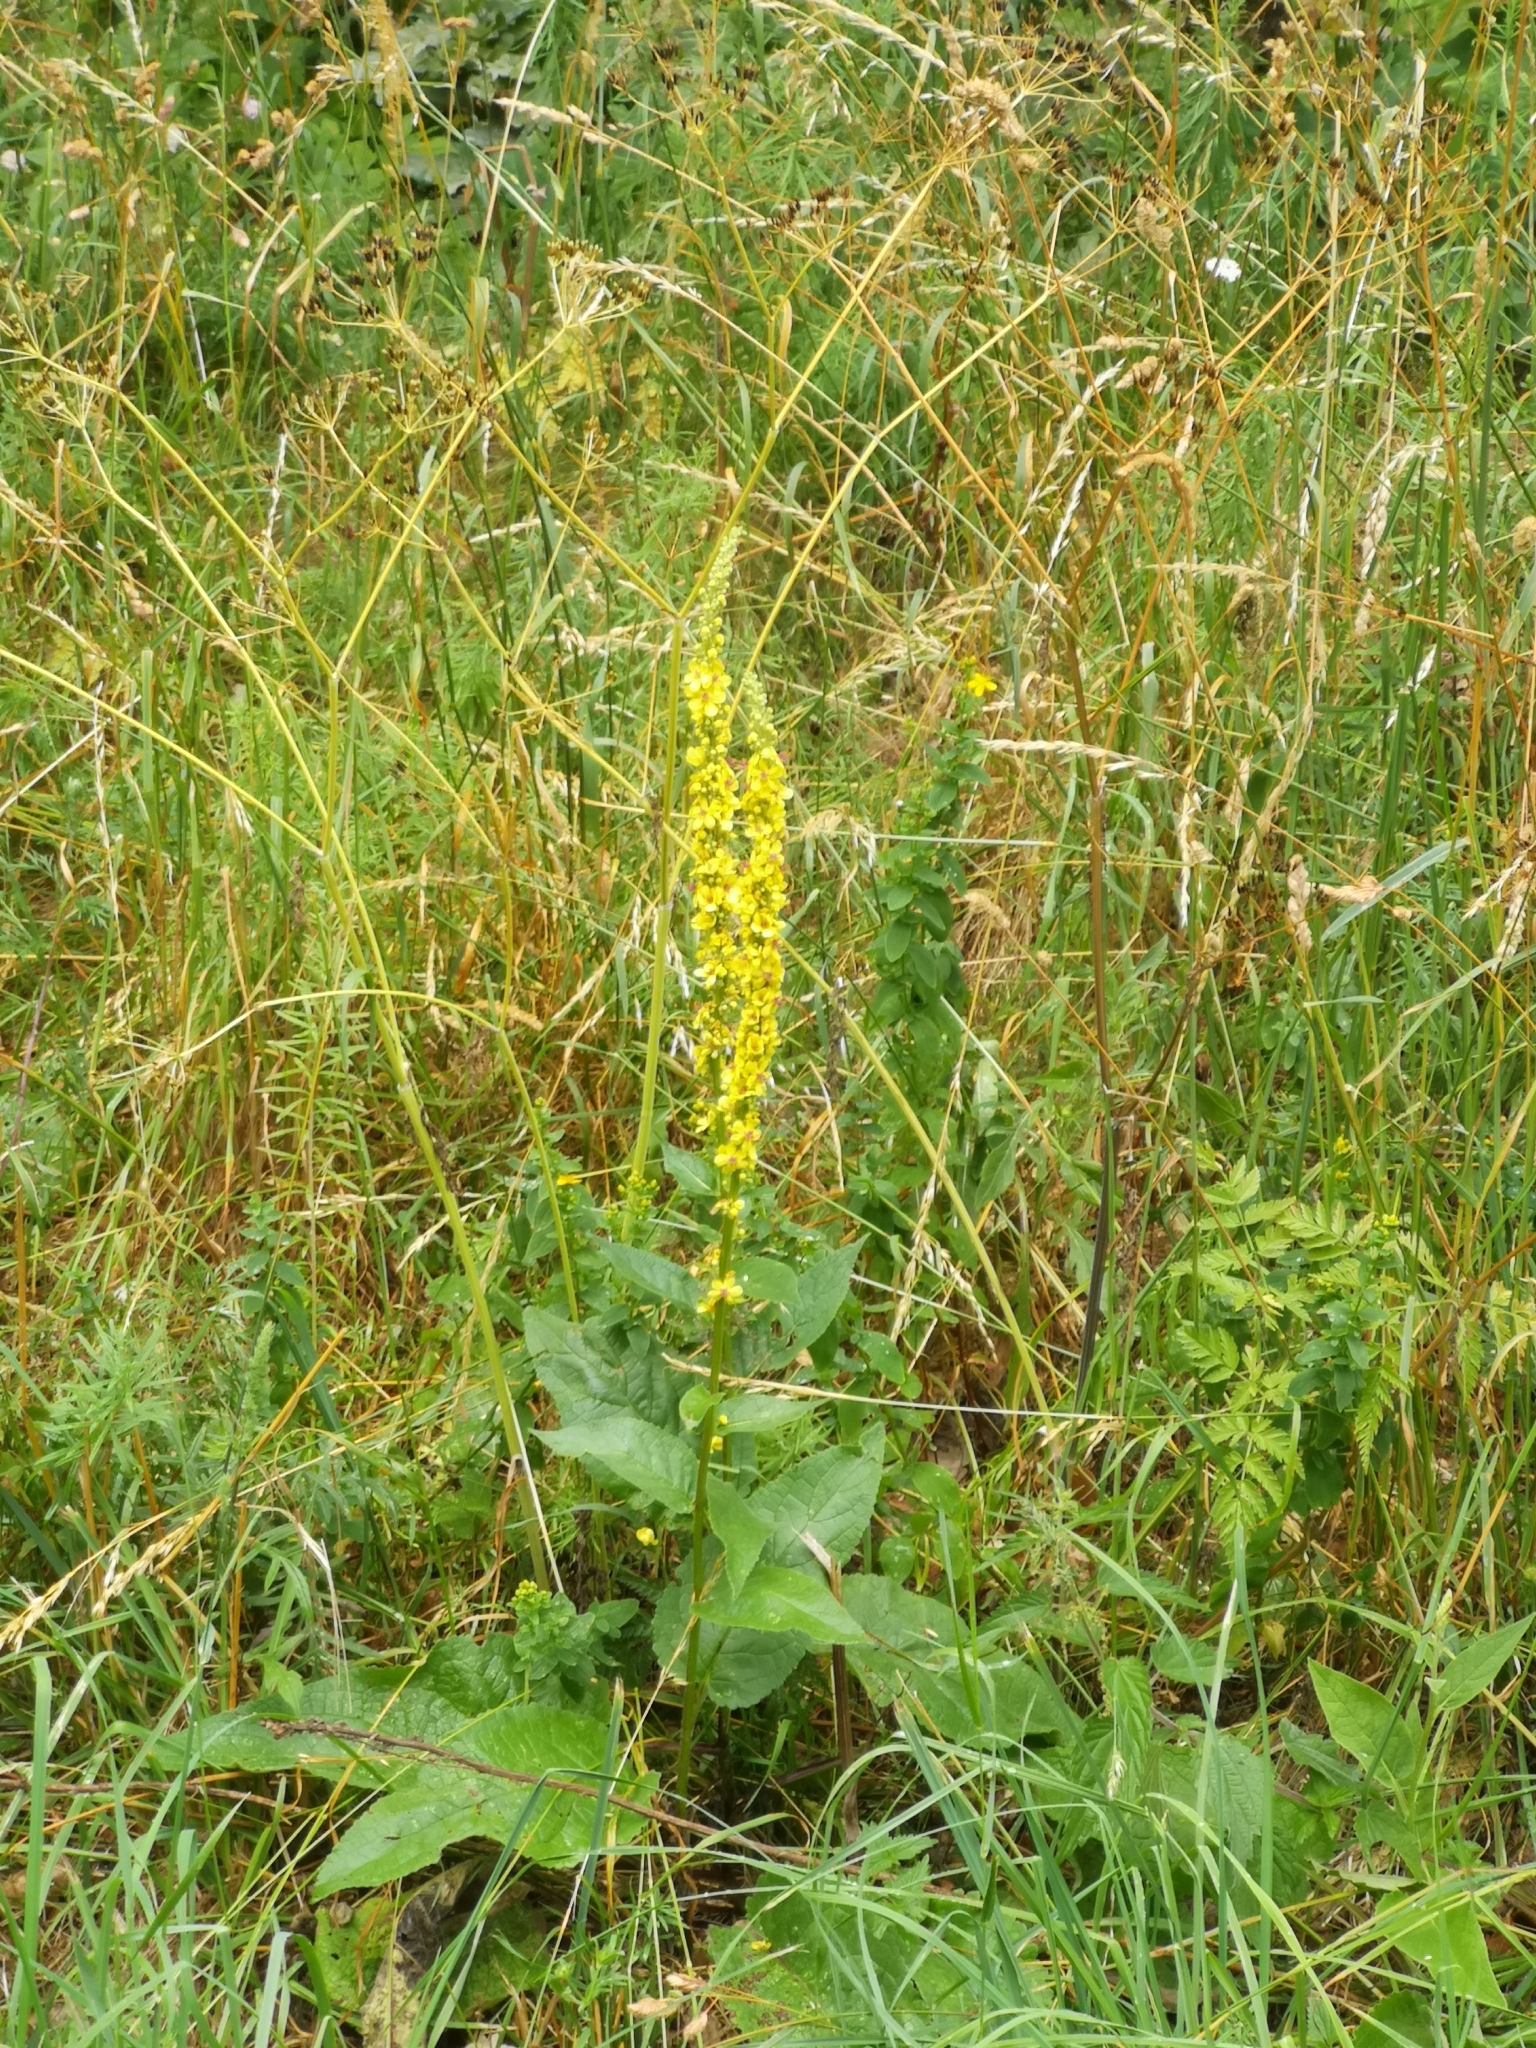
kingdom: Plantae
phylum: Tracheophyta
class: Magnoliopsida
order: Lamiales
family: Scrophulariaceae
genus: Verbascum
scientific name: Verbascum nigrum
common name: Dark mullein
